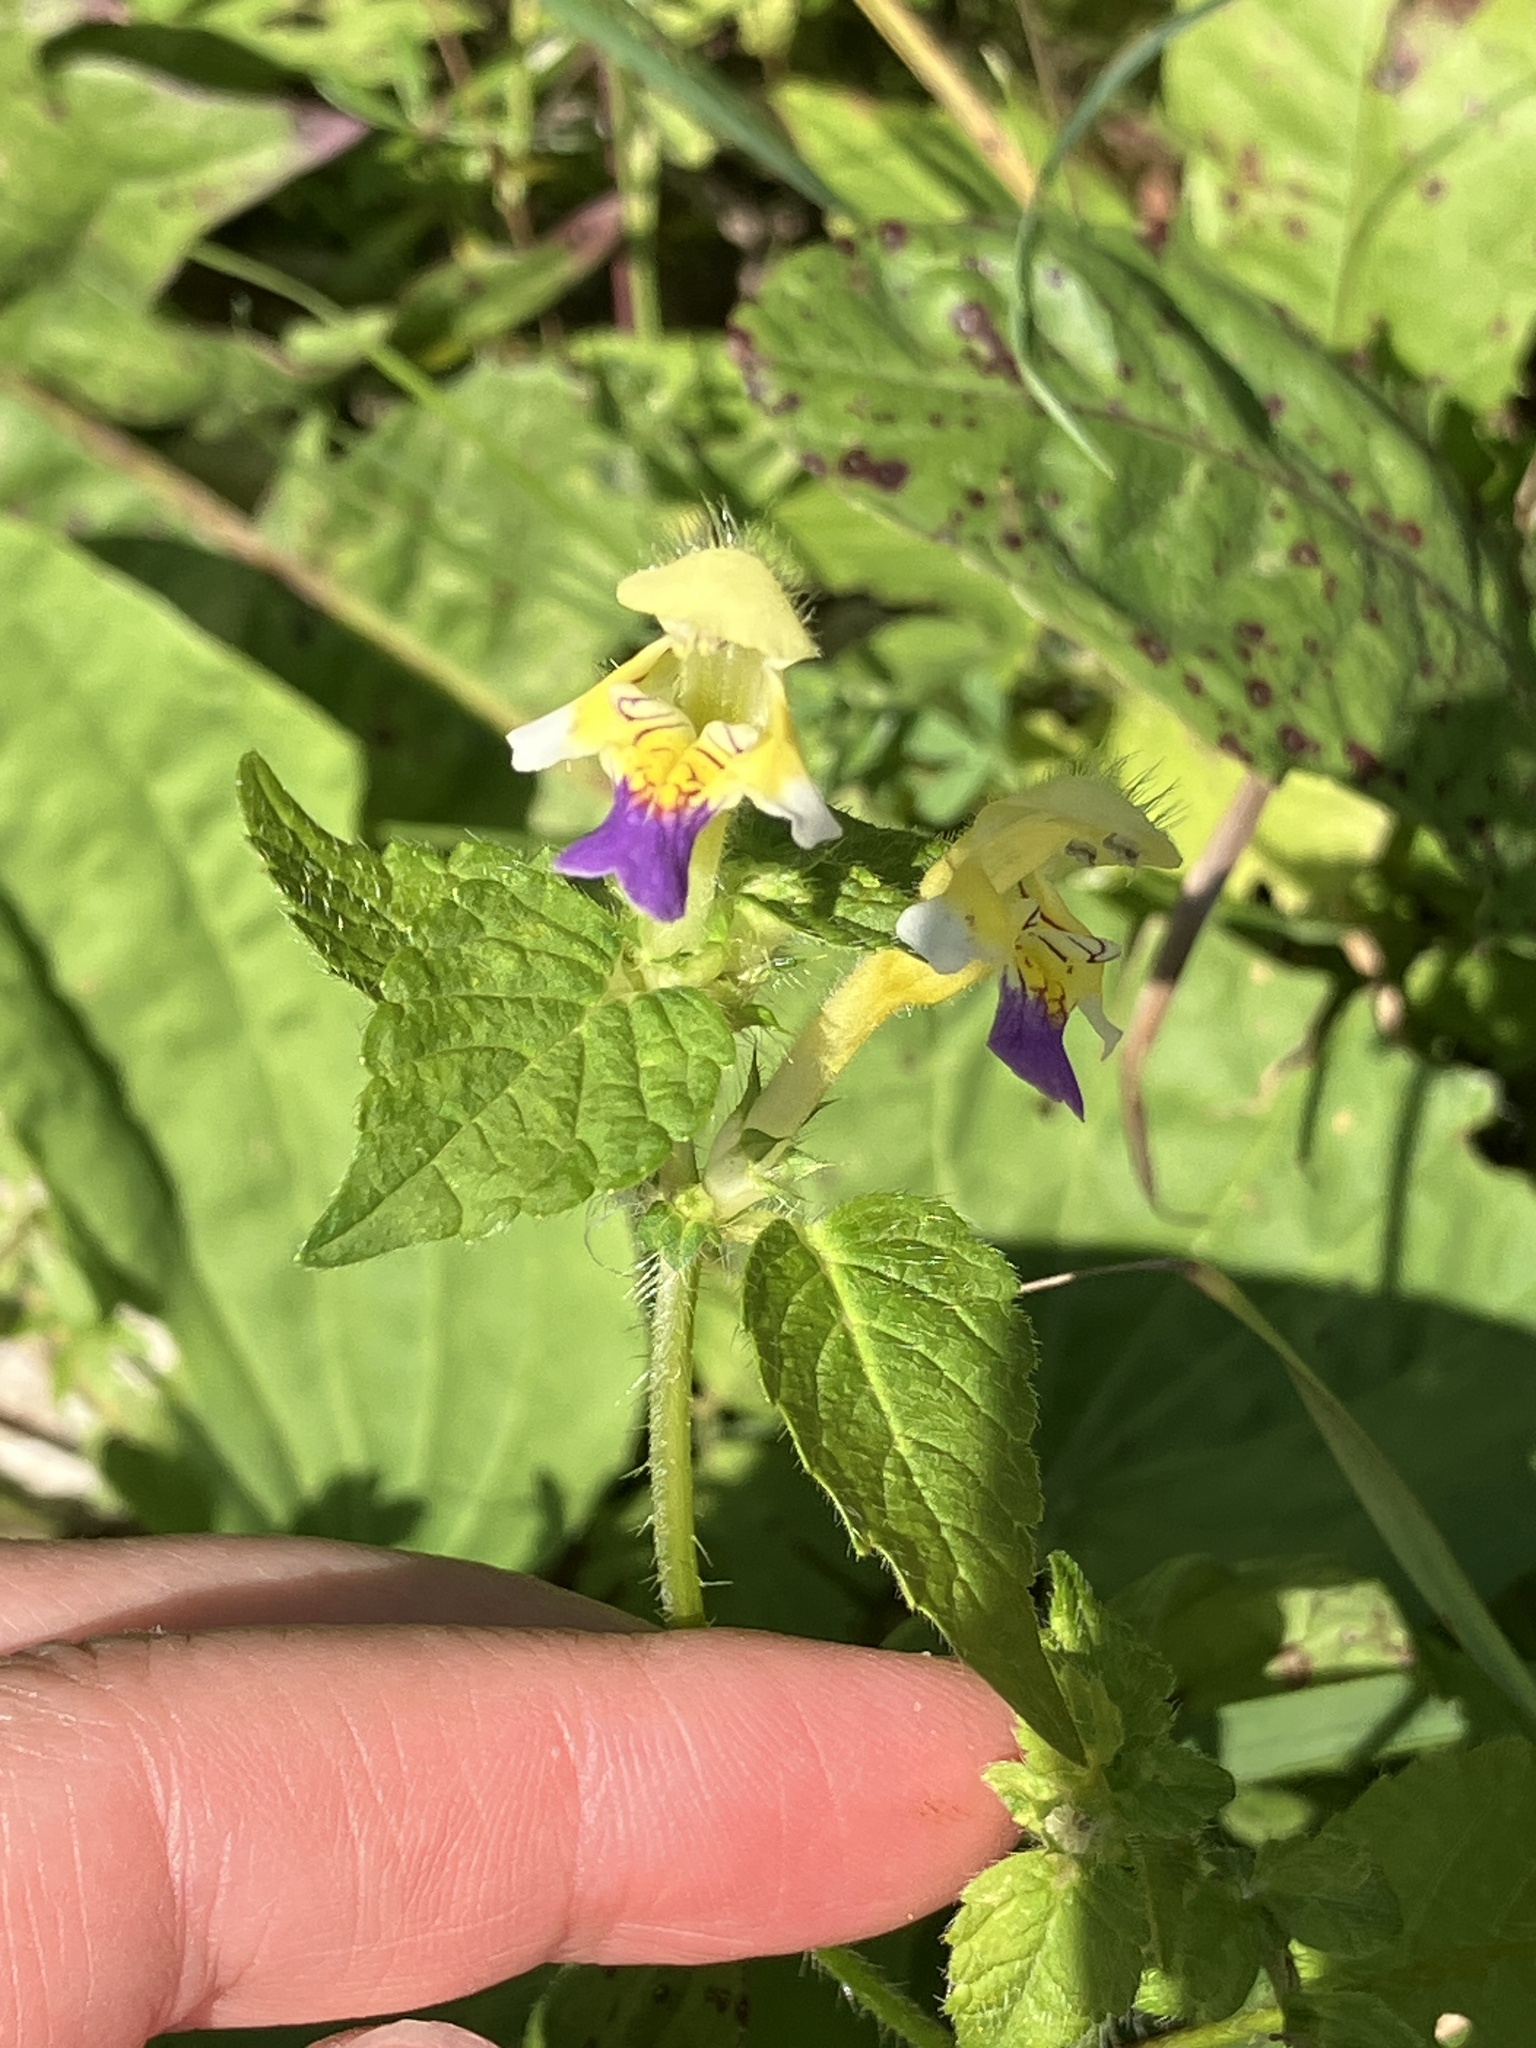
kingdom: Plantae
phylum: Tracheophyta
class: Magnoliopsida
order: Lamiales
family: Lamiaceae
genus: Galeopsis
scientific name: Galeopsis speciosa
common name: Large-flowered hemp-nettle
